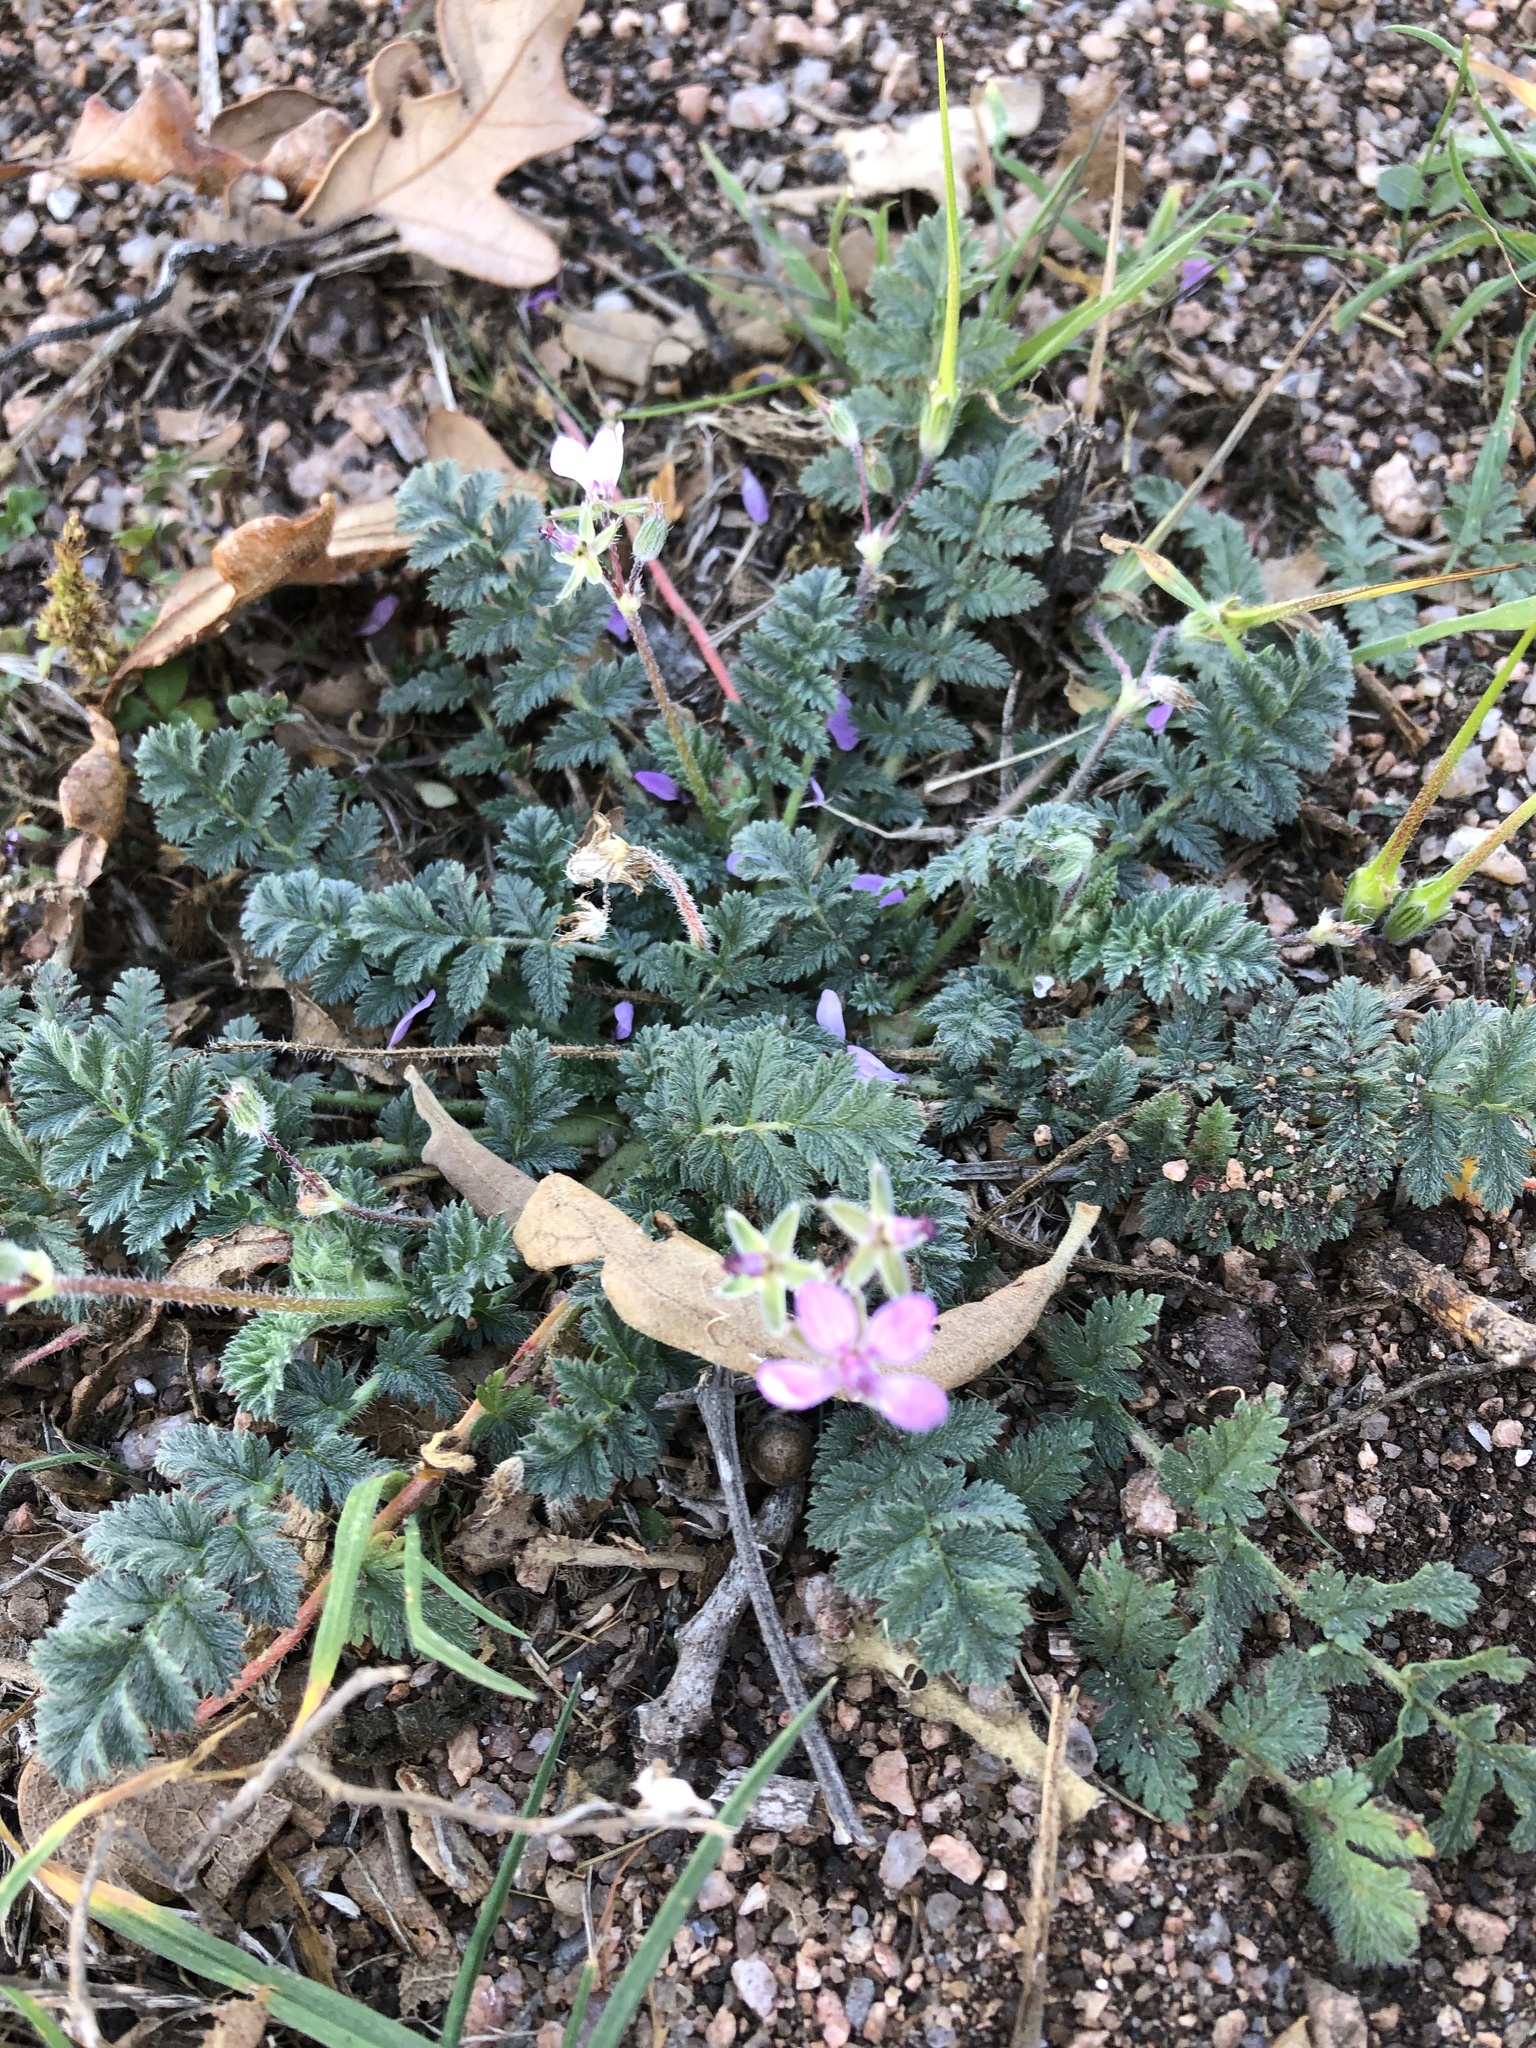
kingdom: Plantae
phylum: Tracheophyta
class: Magnoliopsida
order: Geraniales
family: Geraniaceae
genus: Erodium
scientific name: Erodium cicutarium
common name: Common stork's-bill
